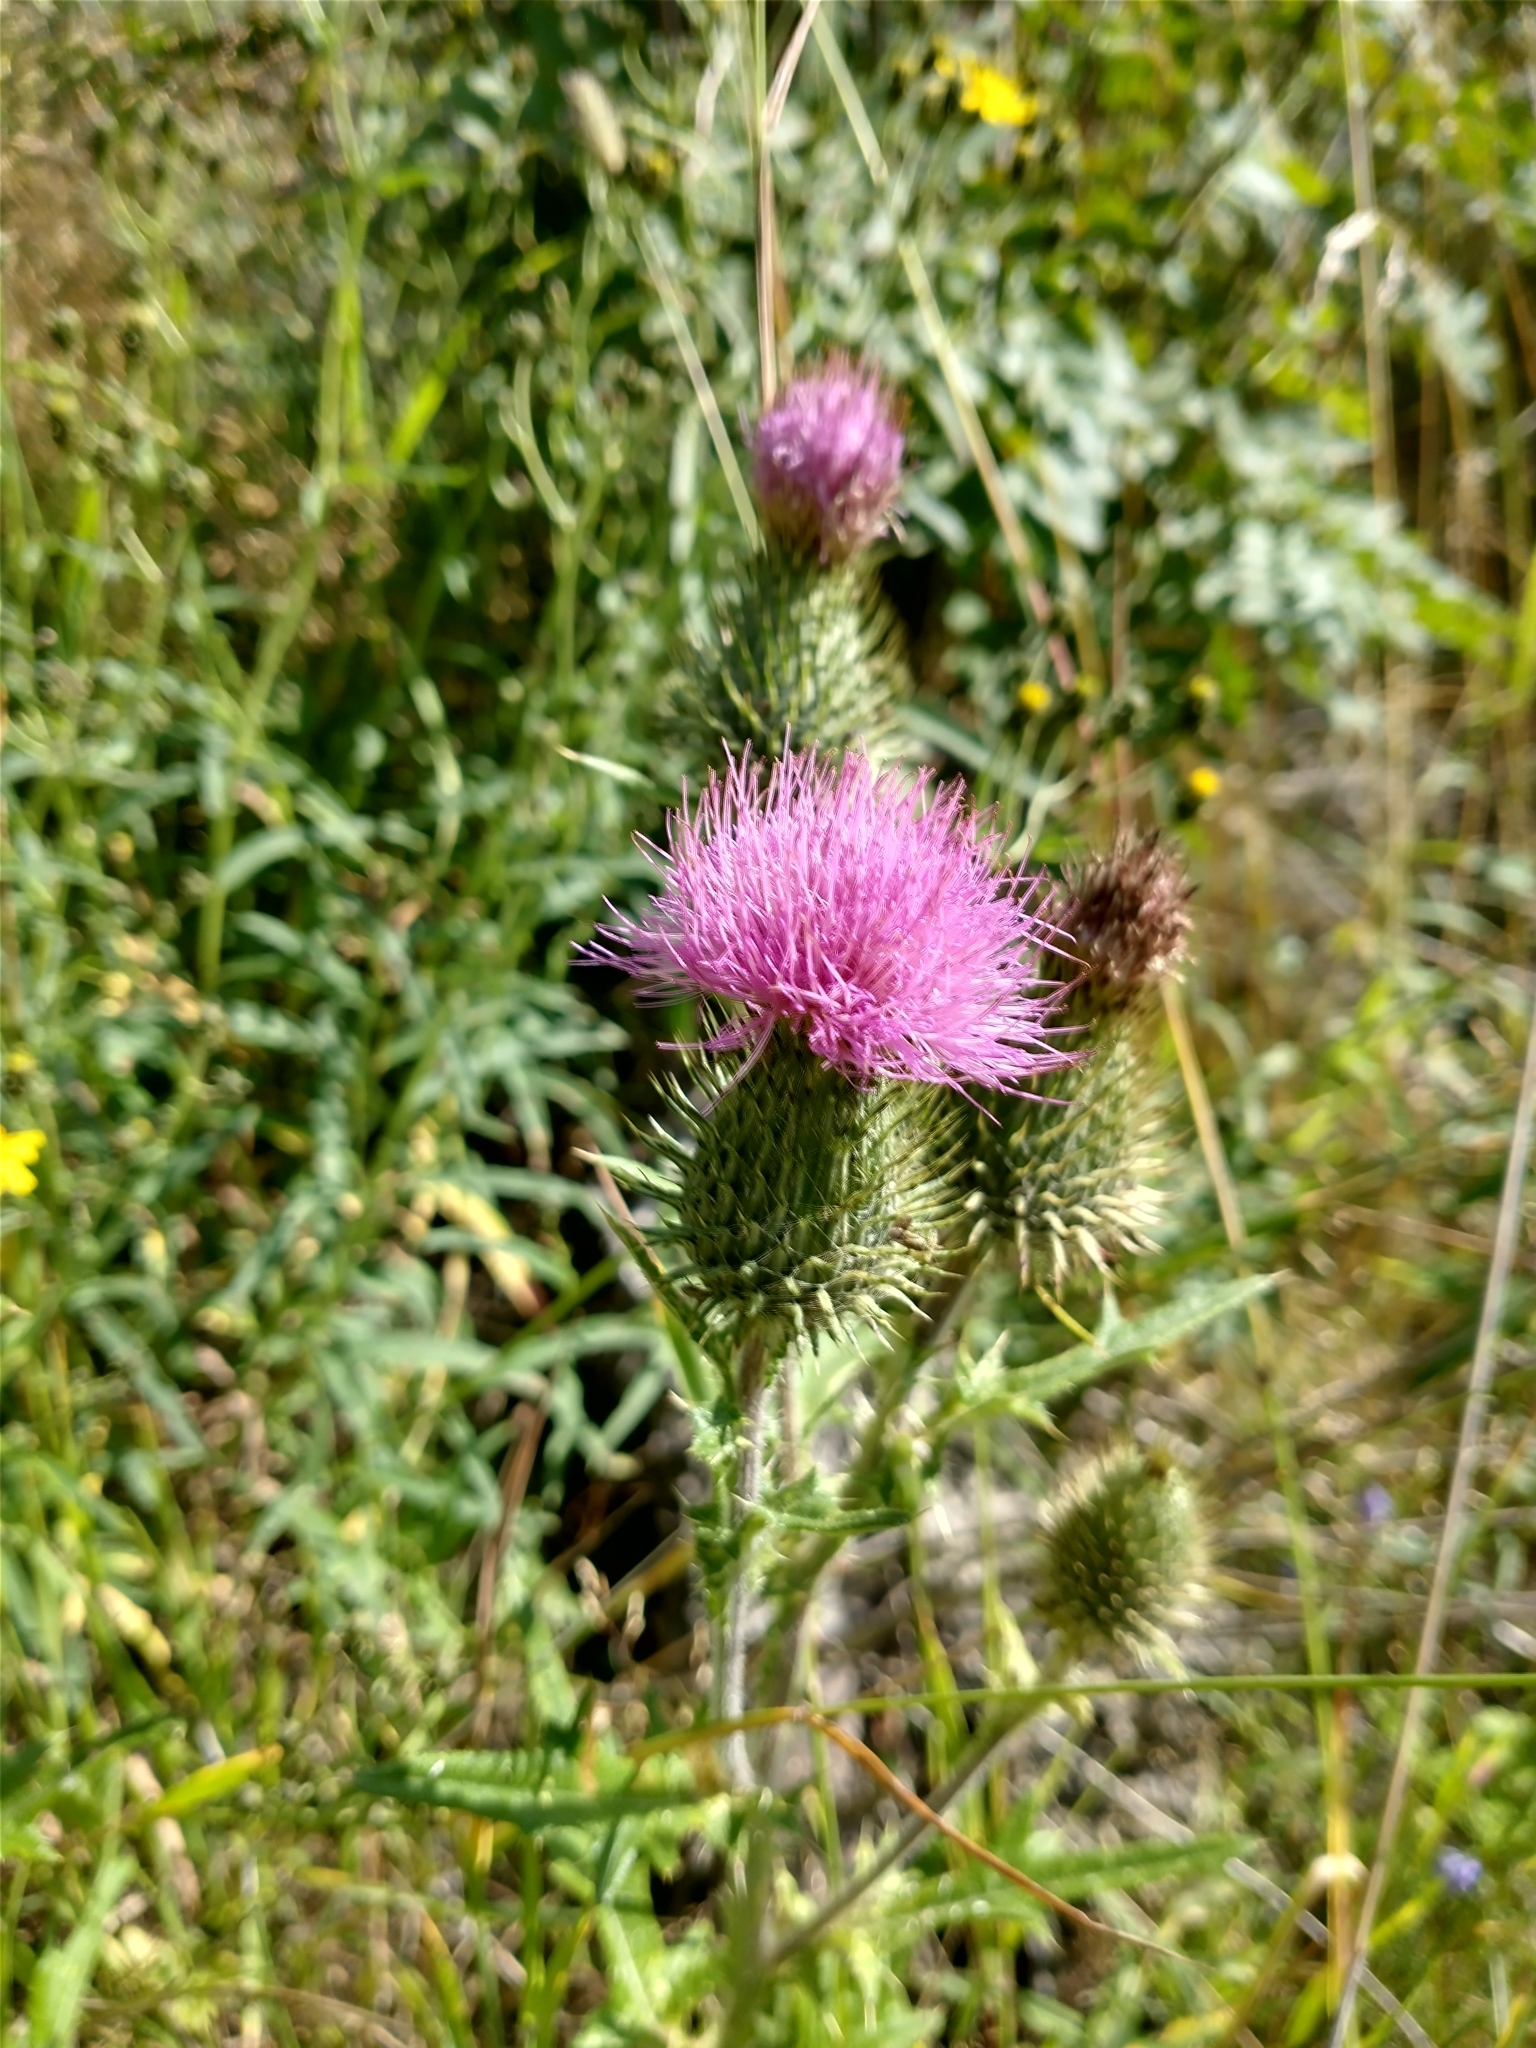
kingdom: Plantae
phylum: Tracheophyta
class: Magnoliopsida
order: Asterales
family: Asteraceae
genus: Cirsium
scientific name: Cirsium vulgare
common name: Bull thistle
